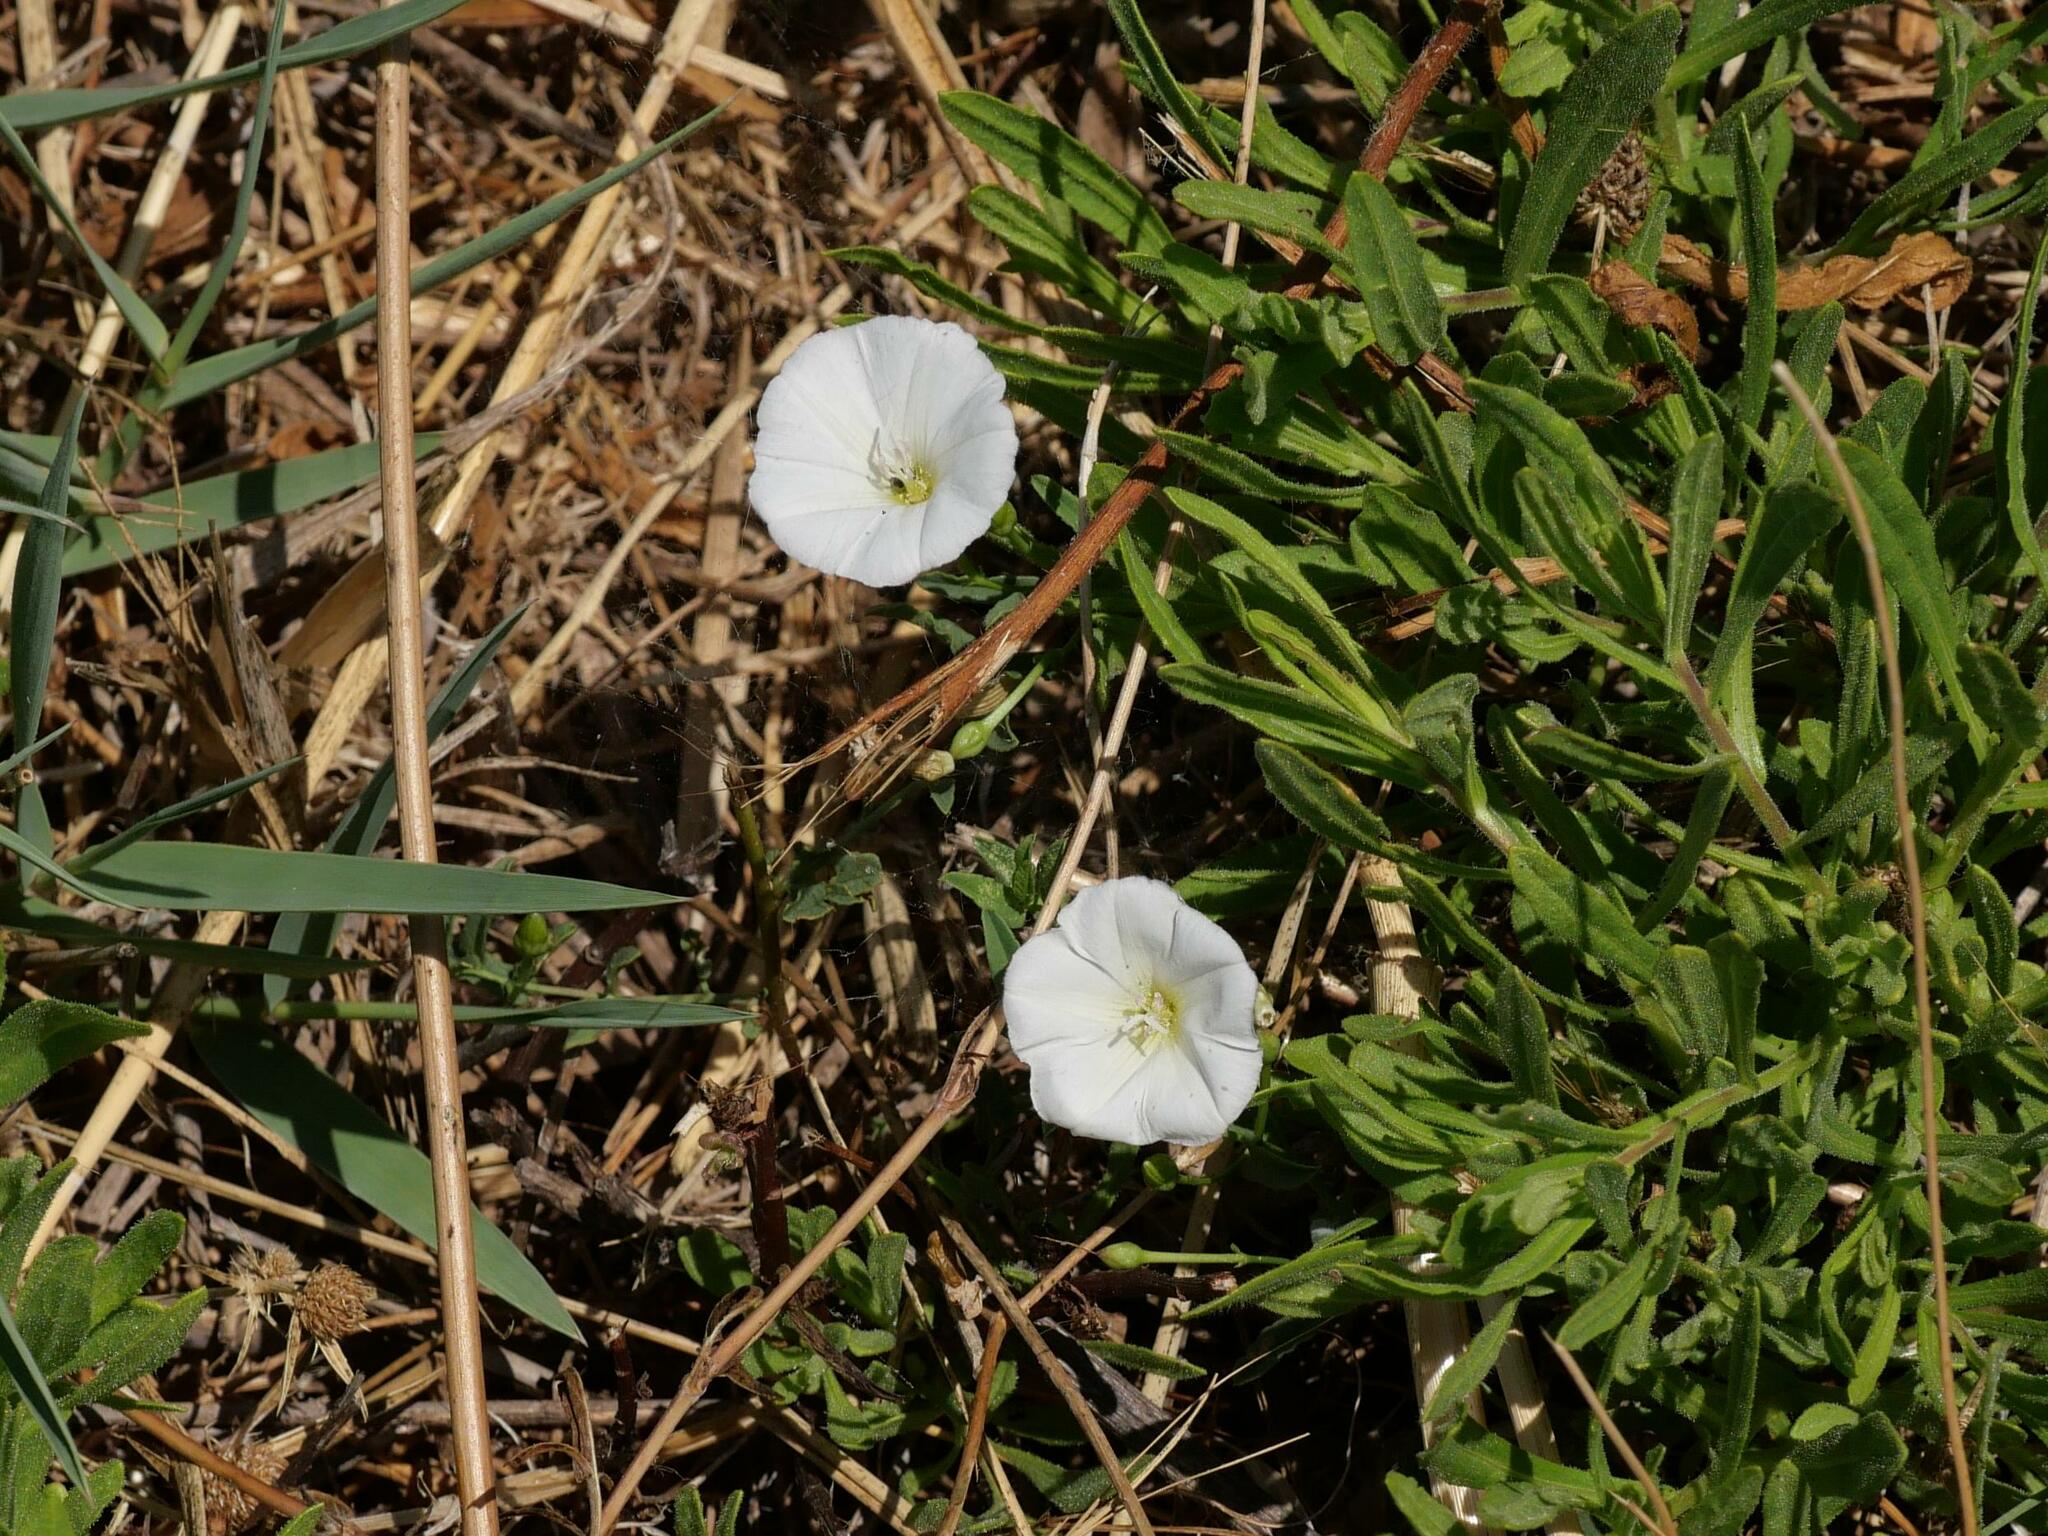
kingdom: Plantae
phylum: Tracheophyta
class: Magnoliopsida
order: Solanales
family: Convolvulaceae
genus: Convolvulus
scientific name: Convolvulus arvensis
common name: Field bindweed
